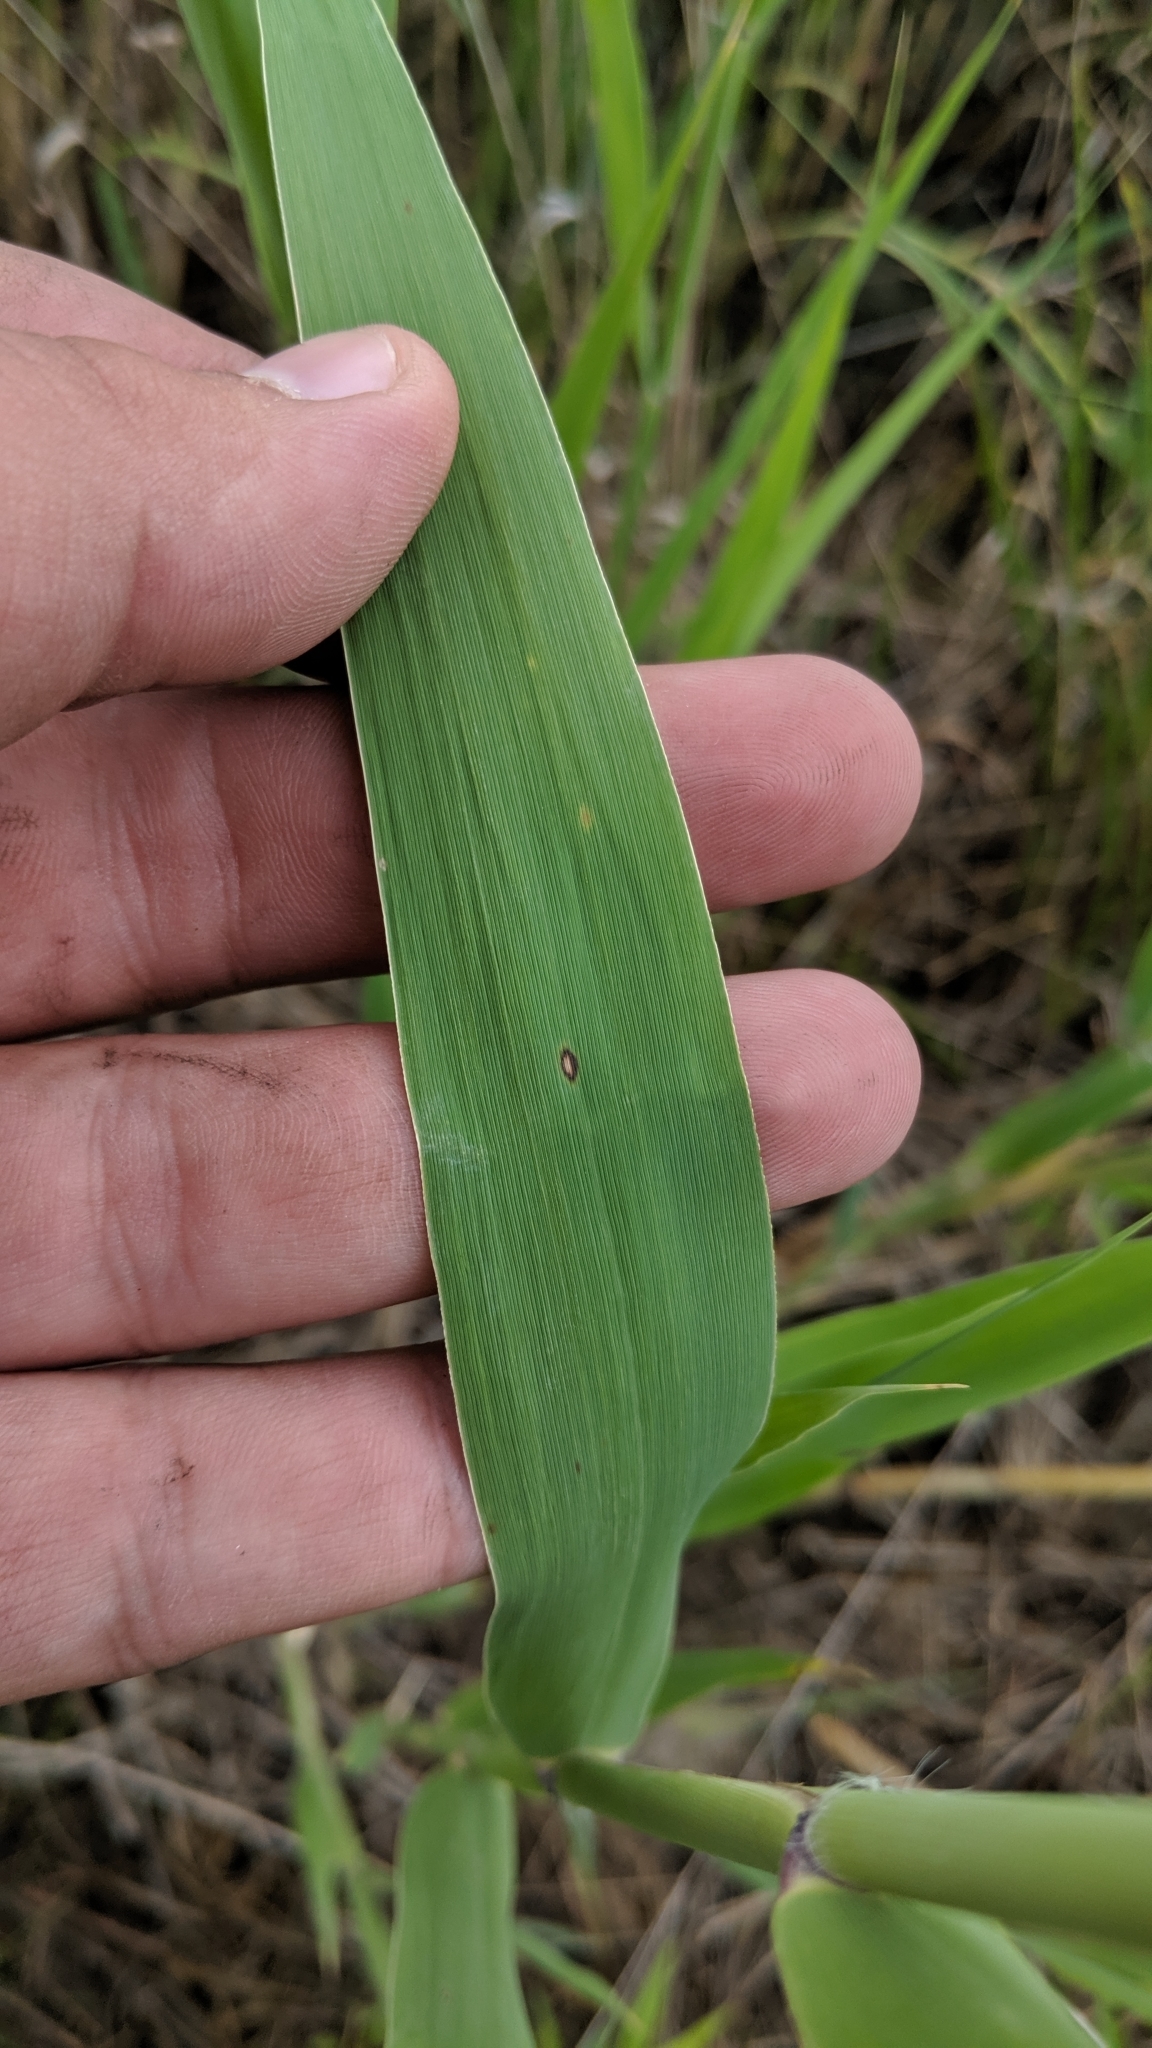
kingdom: Plantae
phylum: Tracheophyta
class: Liliopsida
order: Poales
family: Poaceae
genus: Phalaris
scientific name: Phalaris arundinacea
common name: Reed canary-grass
